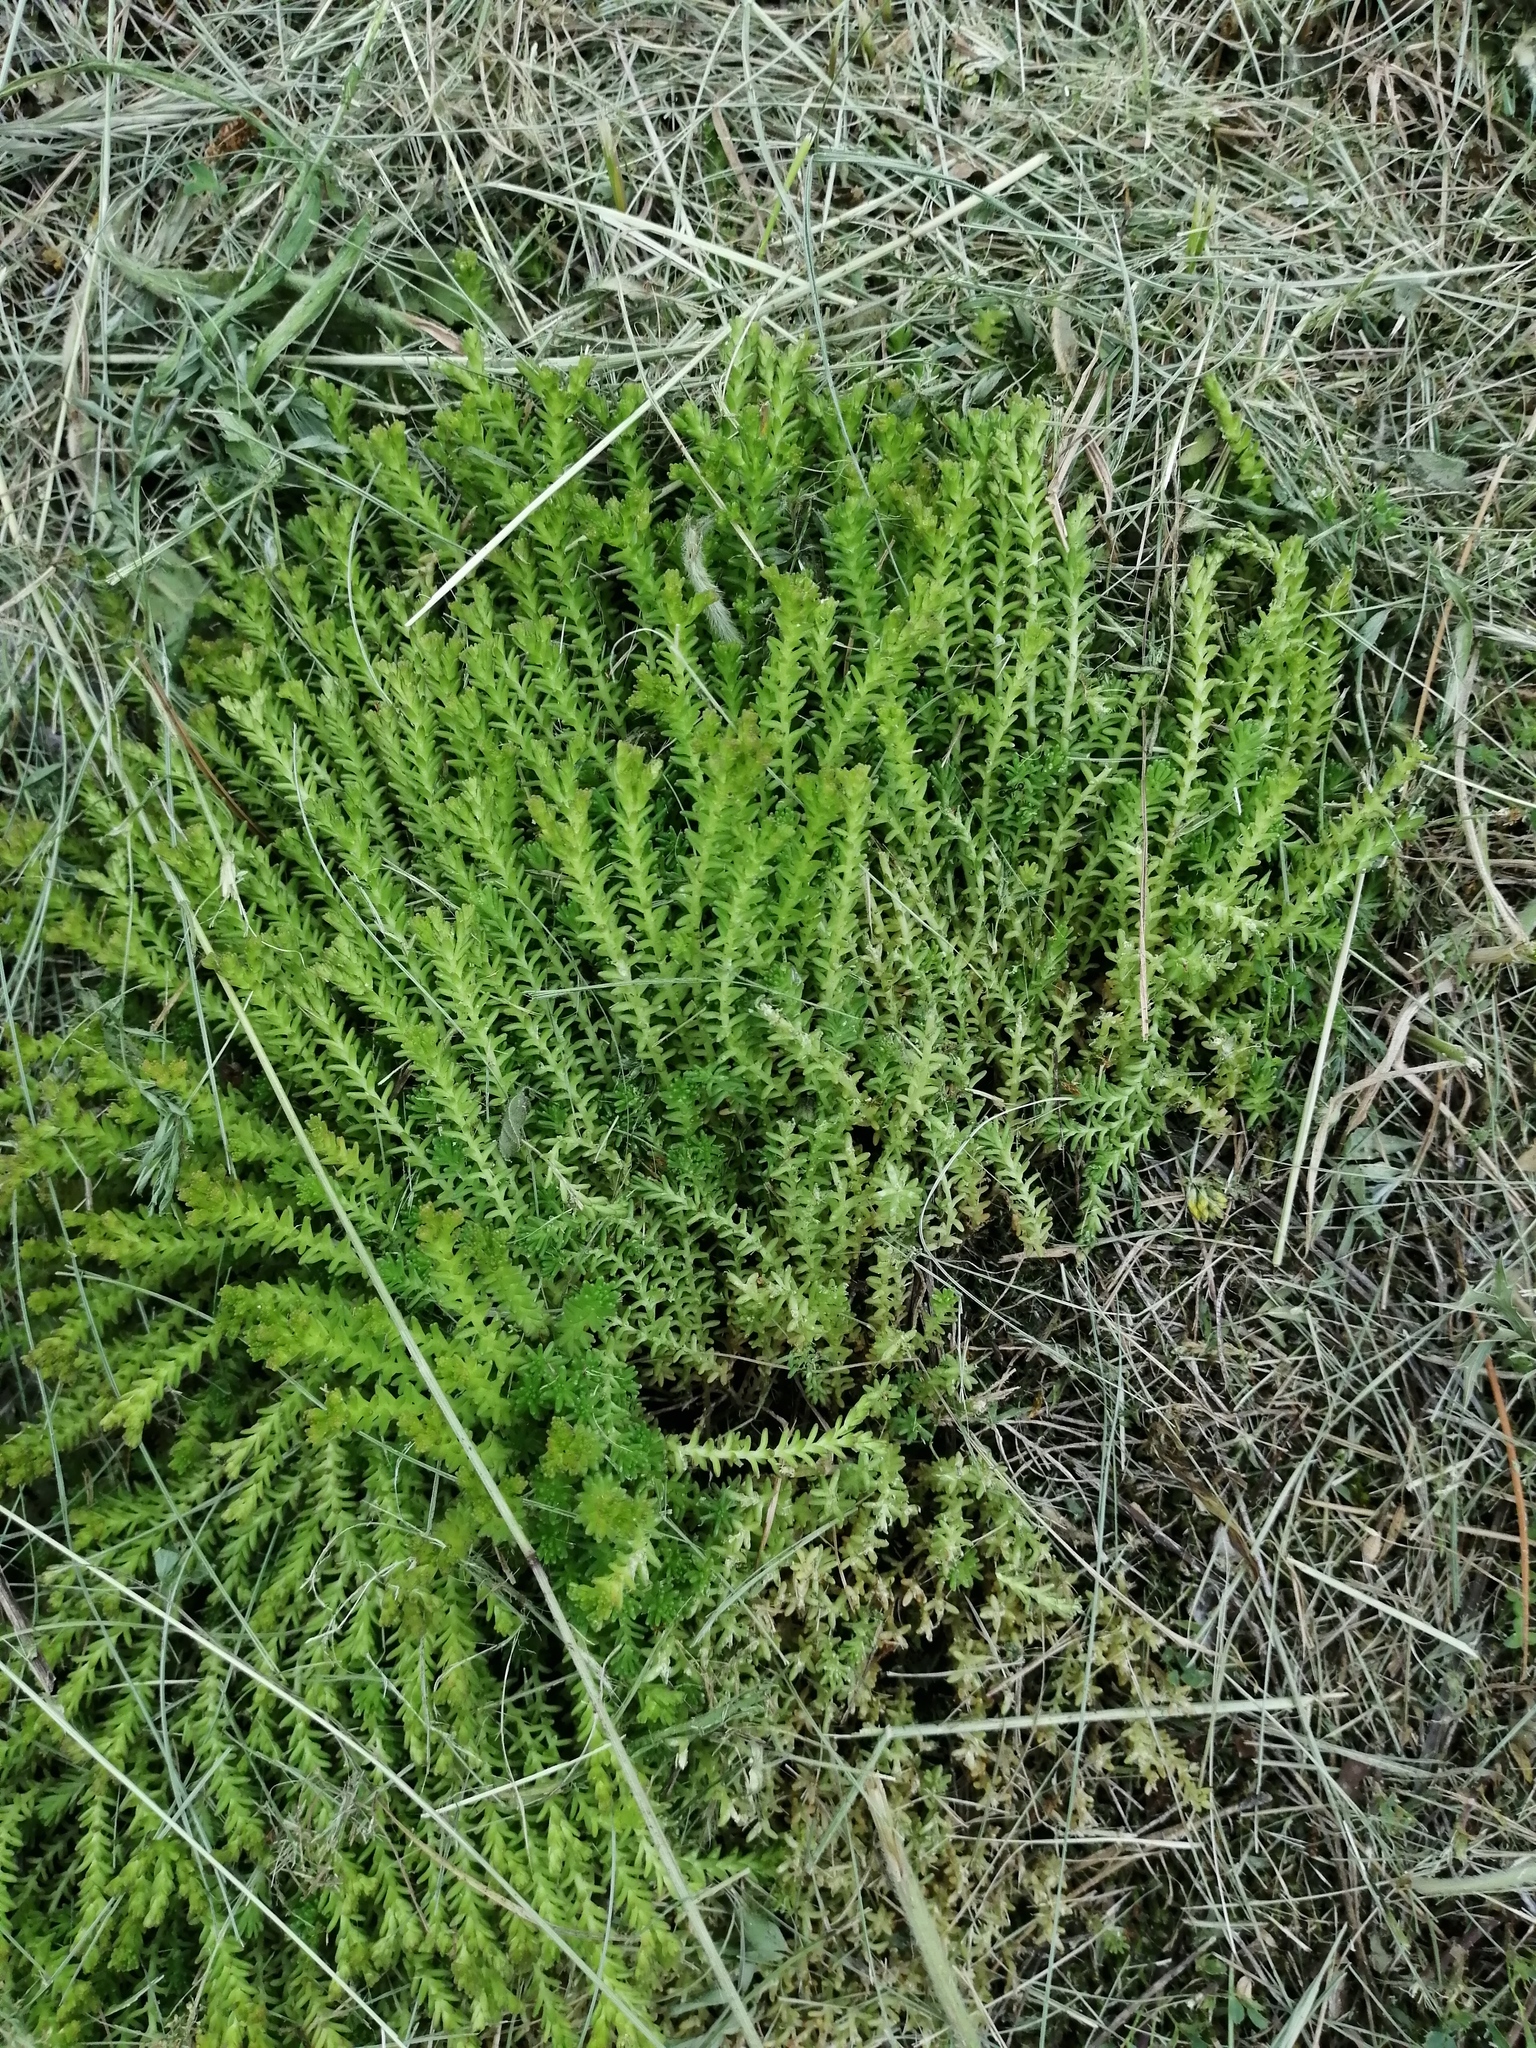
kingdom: Plantae
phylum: Tracheophyta
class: Magnoliopsida
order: Saxifragales
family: Crassulaceae
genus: Sedum
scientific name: Sedum sexangulare
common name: Tasteless stonecrop
